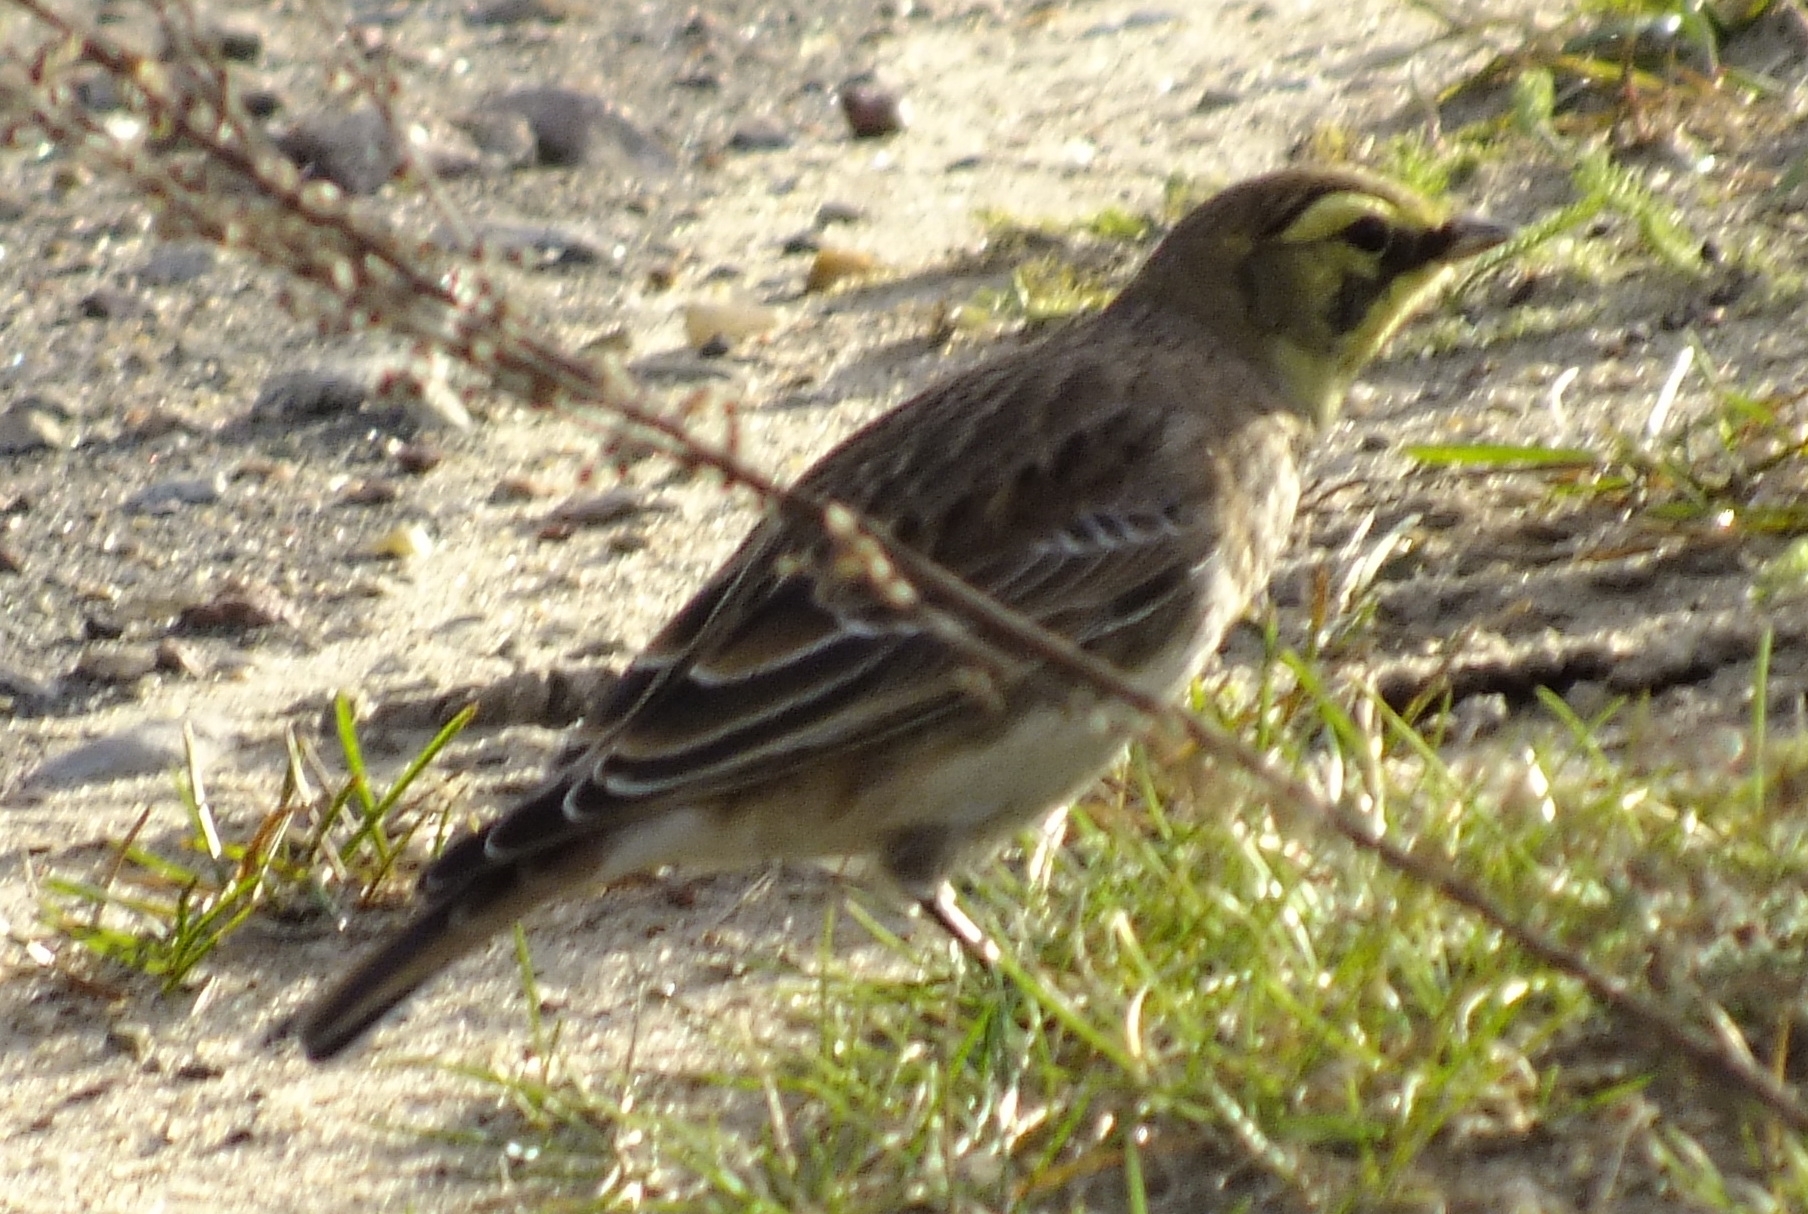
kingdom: Animalia
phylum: Chordata
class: Aves
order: Passeriformes
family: Alaudidae
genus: Eremophila
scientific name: Eremophila alpestris
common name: Horned lark
